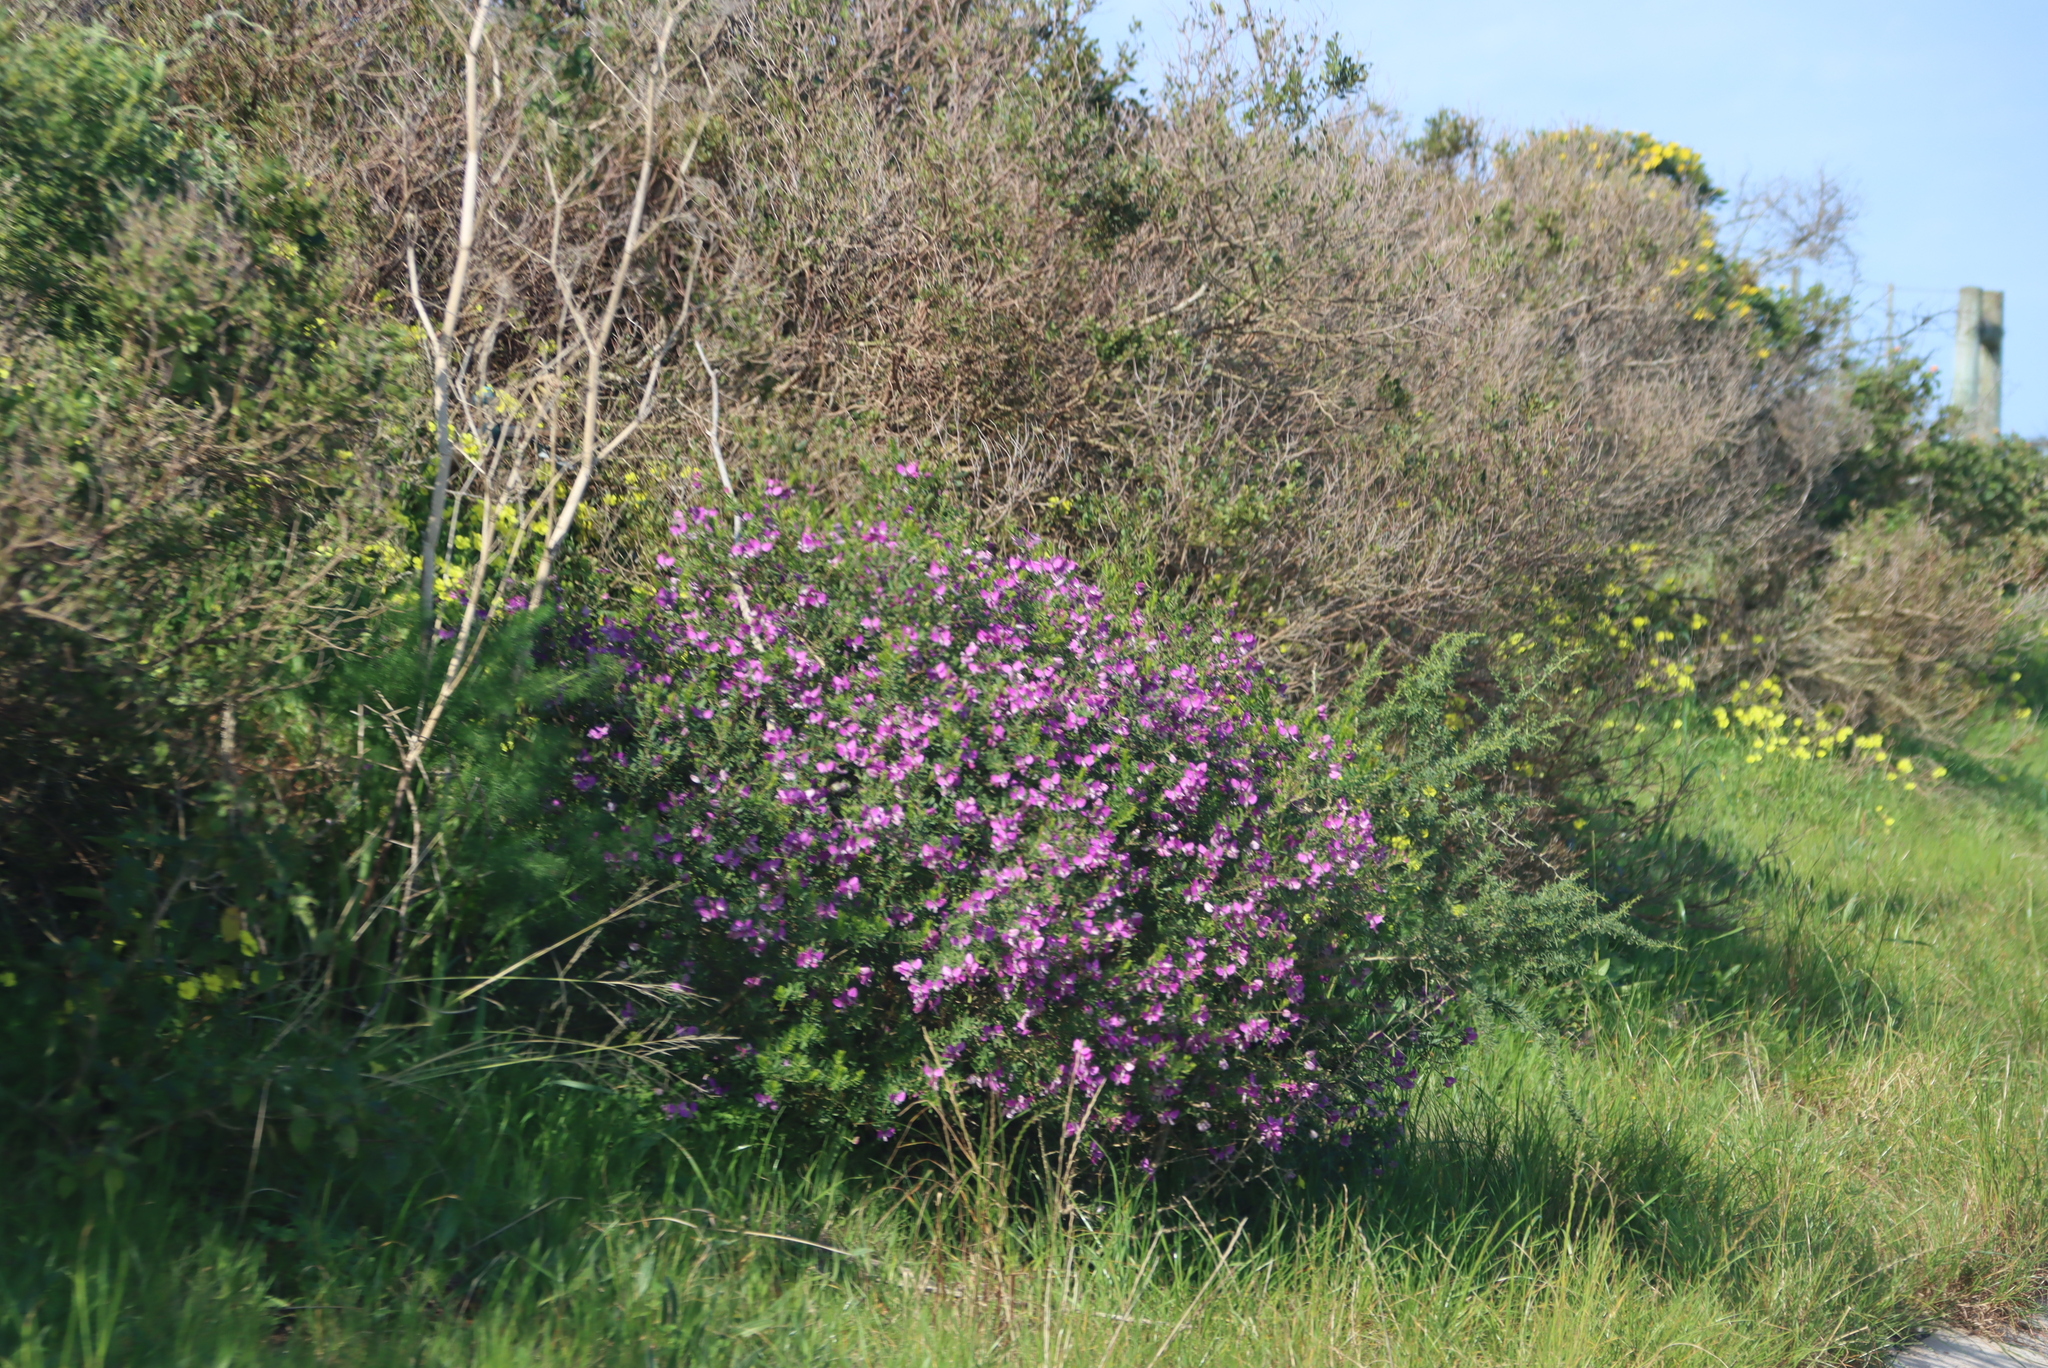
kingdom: Plantae
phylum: Tracheophyta
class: Magnoliopsida
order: Fabales
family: Polygalaceae
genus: Polygala
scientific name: Polygala myrtifolia
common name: Myrtle-leaf milkwort
